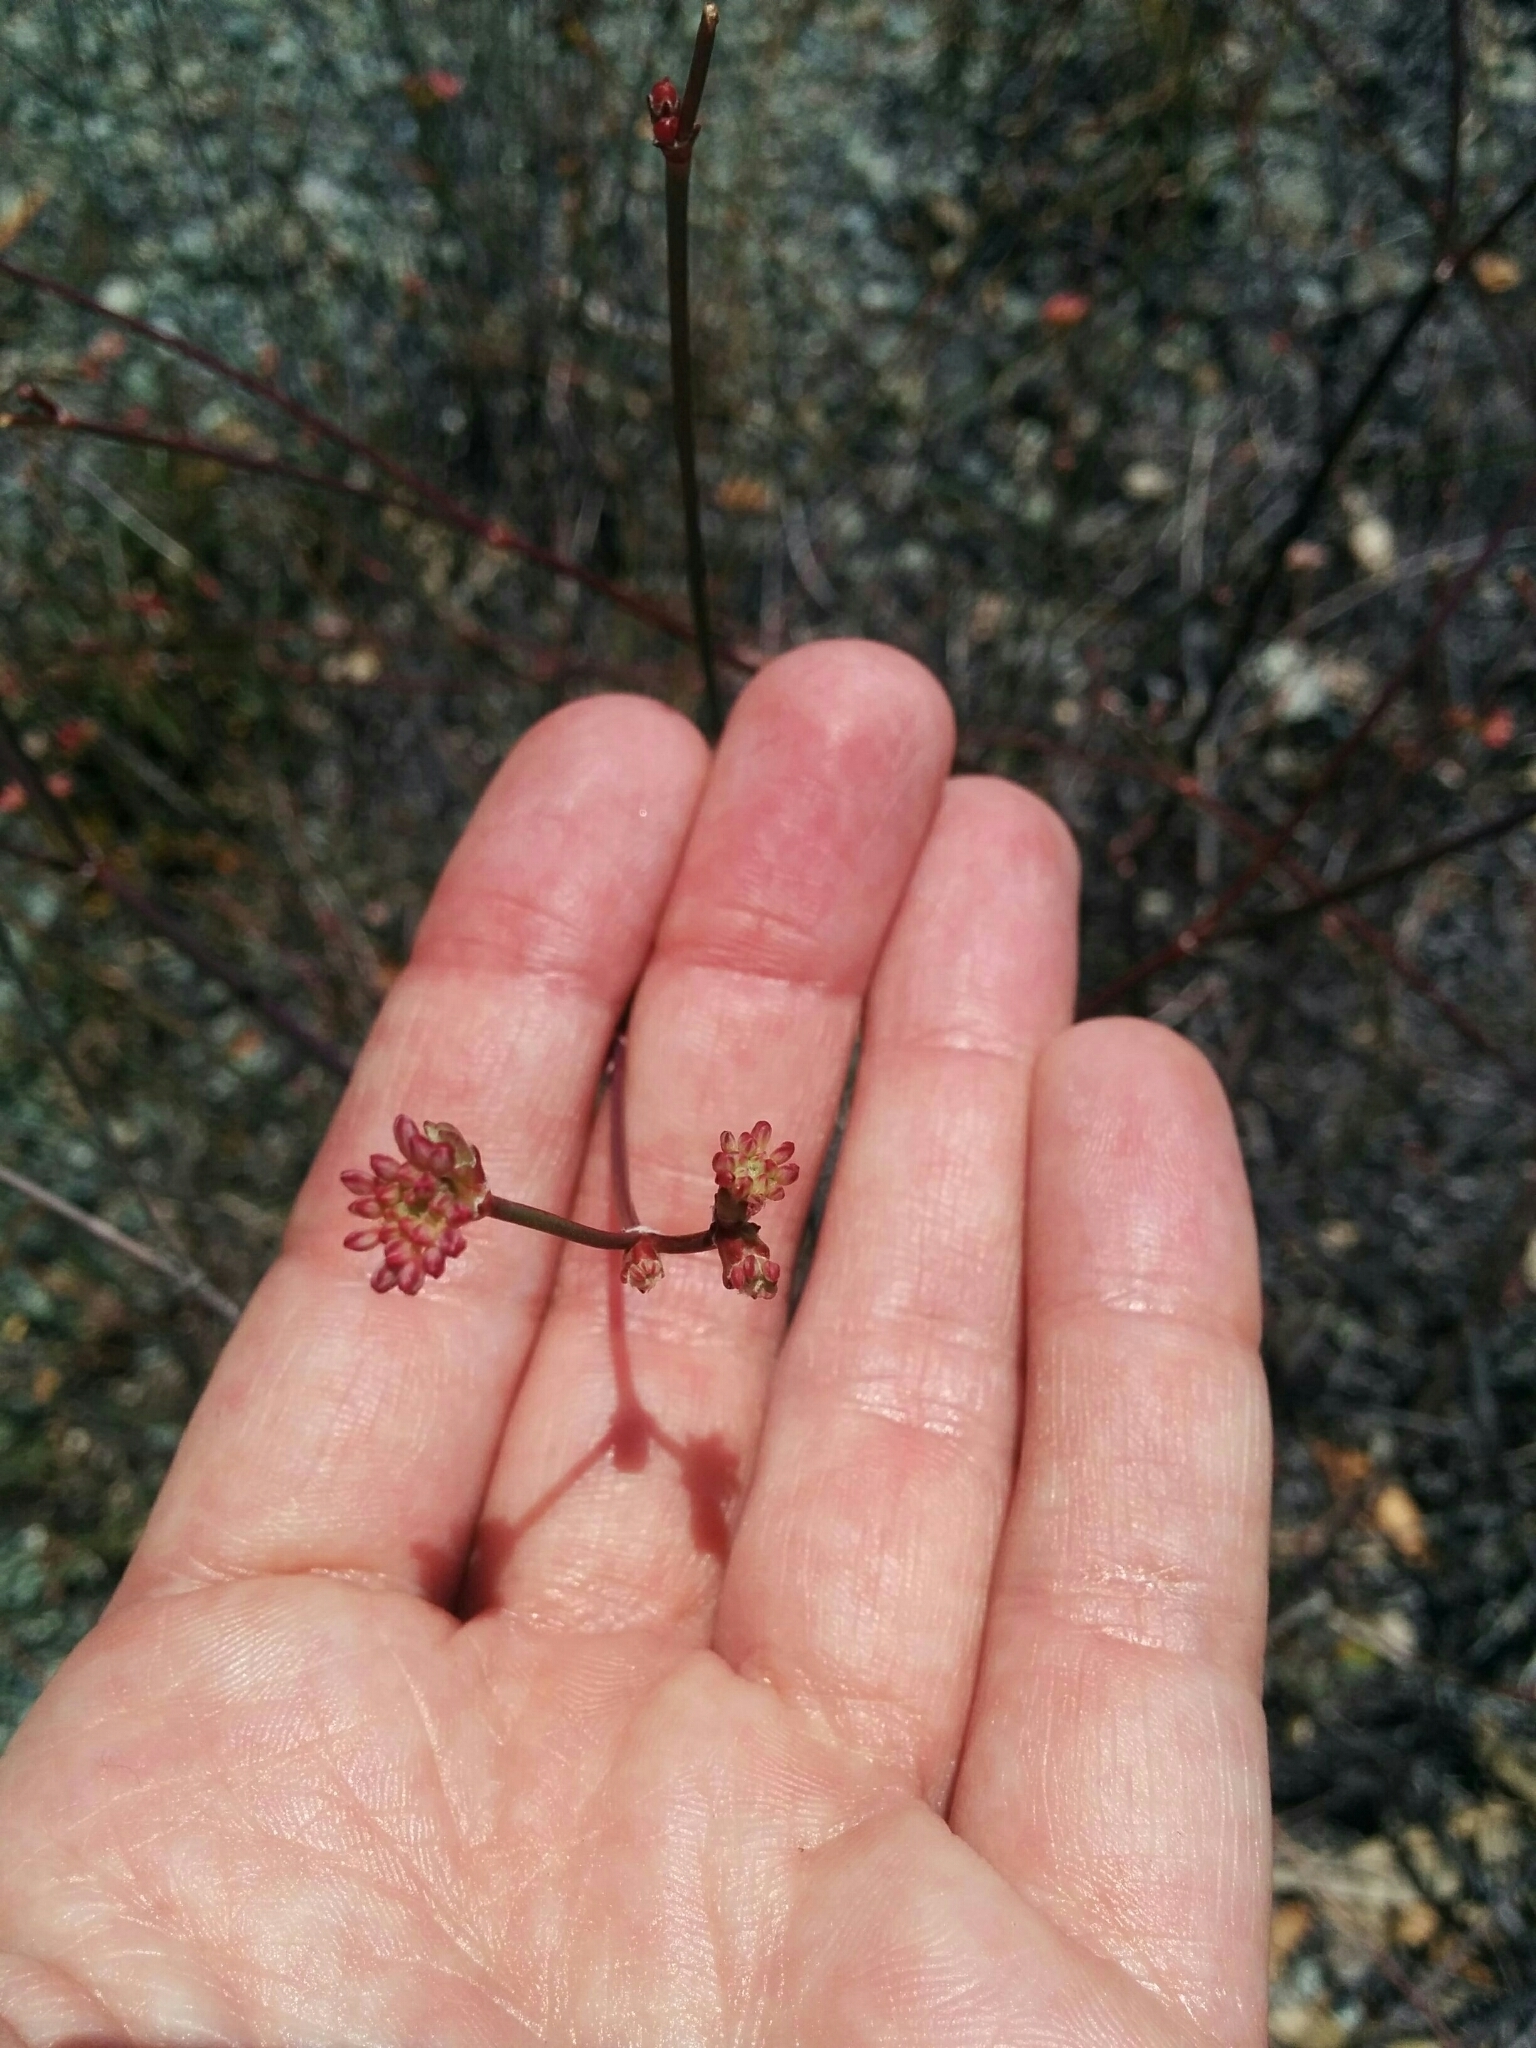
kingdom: Plantae
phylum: Tracheophyta
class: Magnoliopsida
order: Caryophyllales
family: Polygonaceae
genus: Eriogonum
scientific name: Eriogonum nudum
